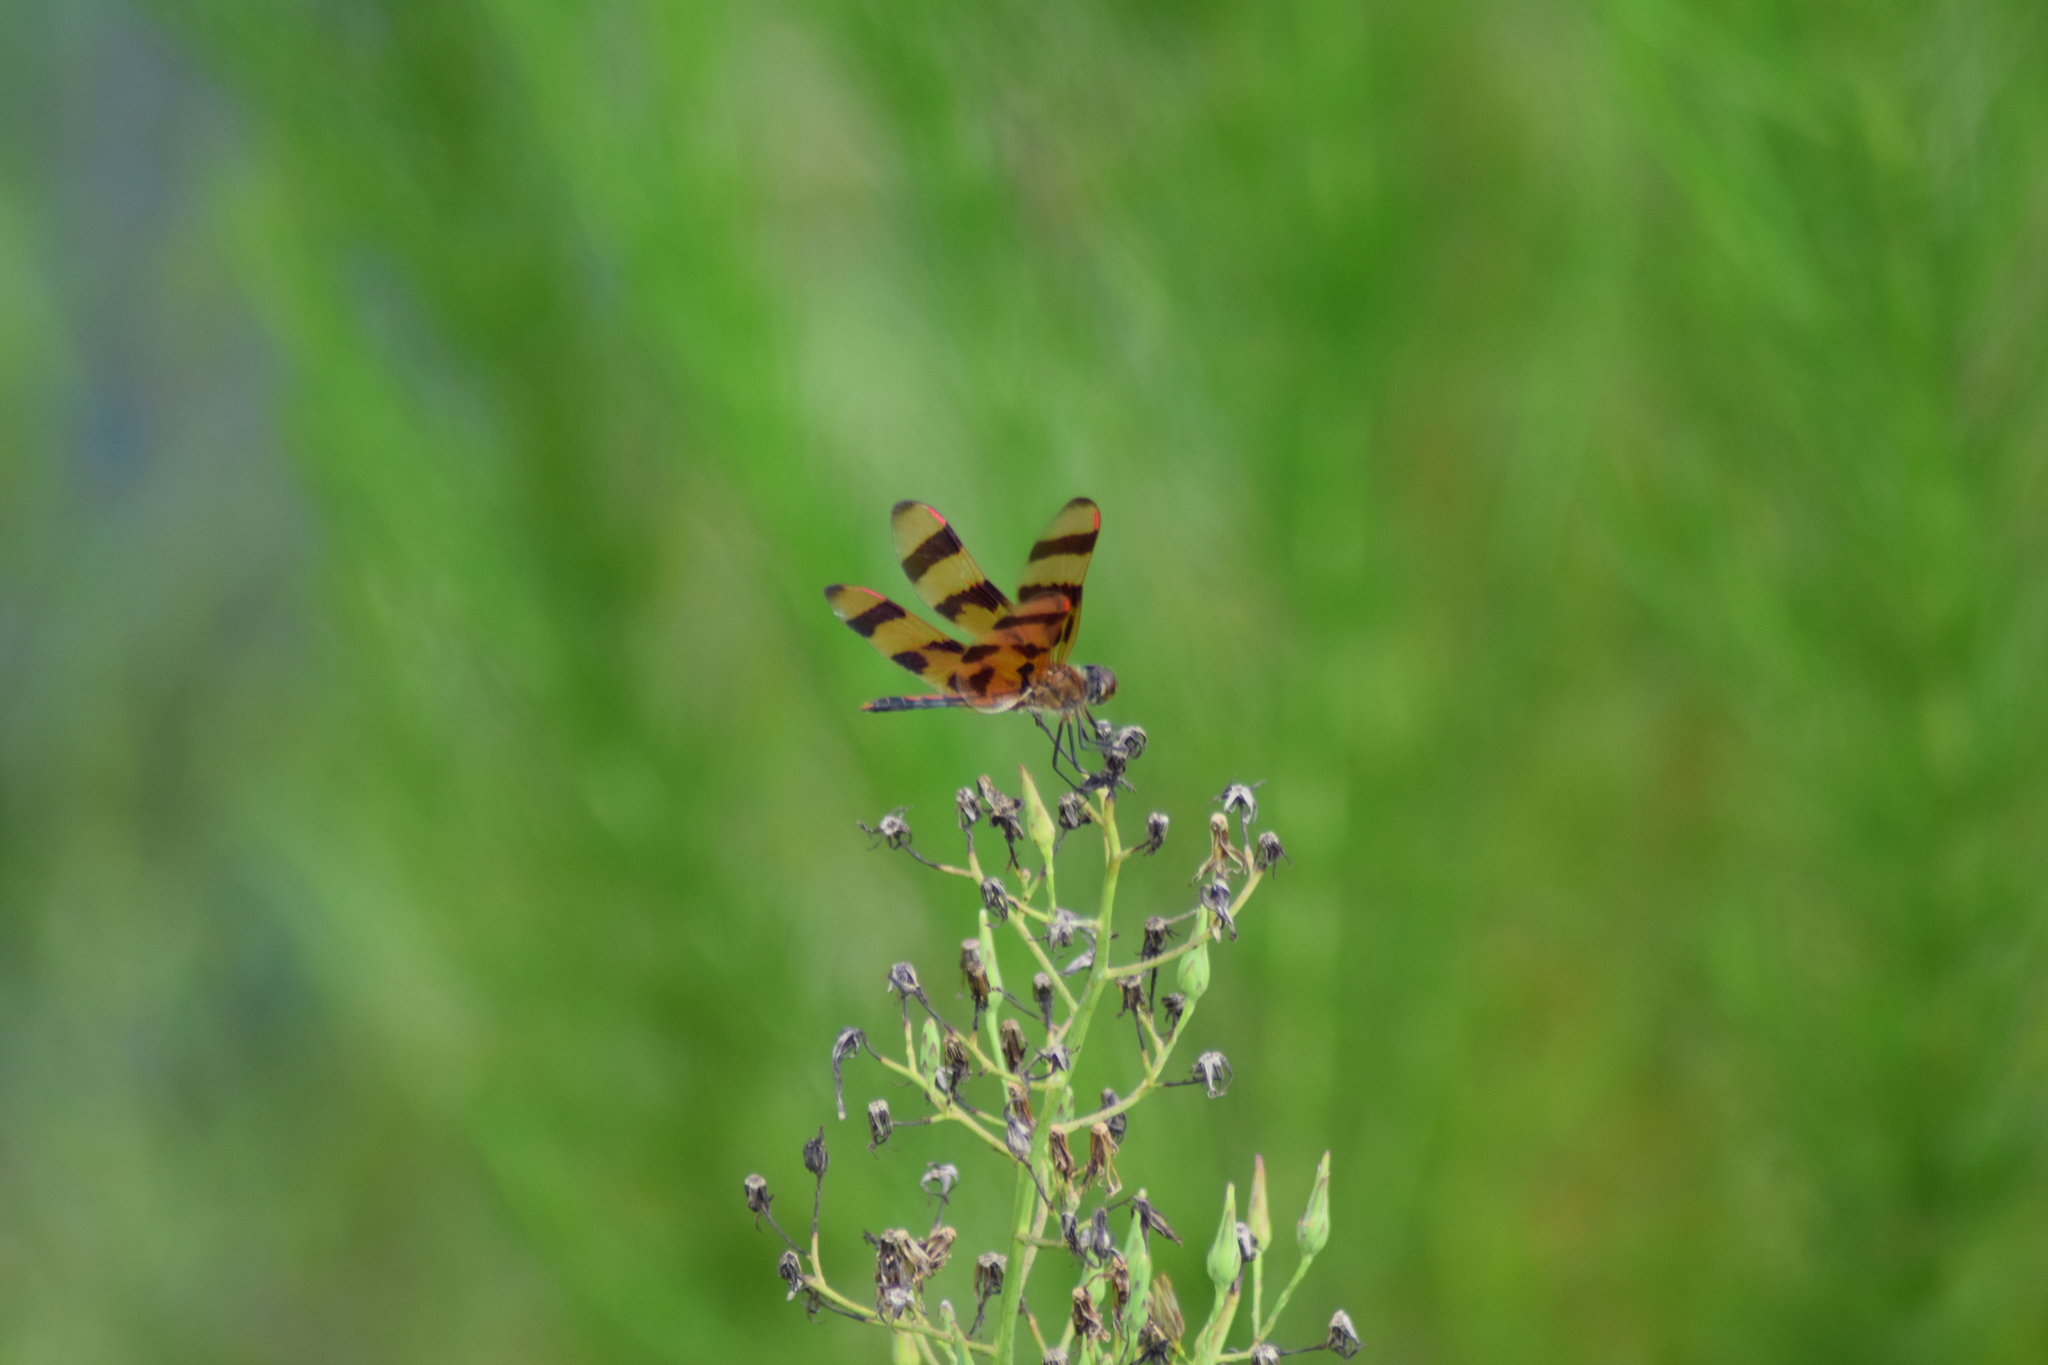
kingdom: Animalia
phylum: Arthropoda
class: Insecta
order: Odonata
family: Libellulidae
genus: Celithemis
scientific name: Celithemis eponina
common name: Halloween pennant
